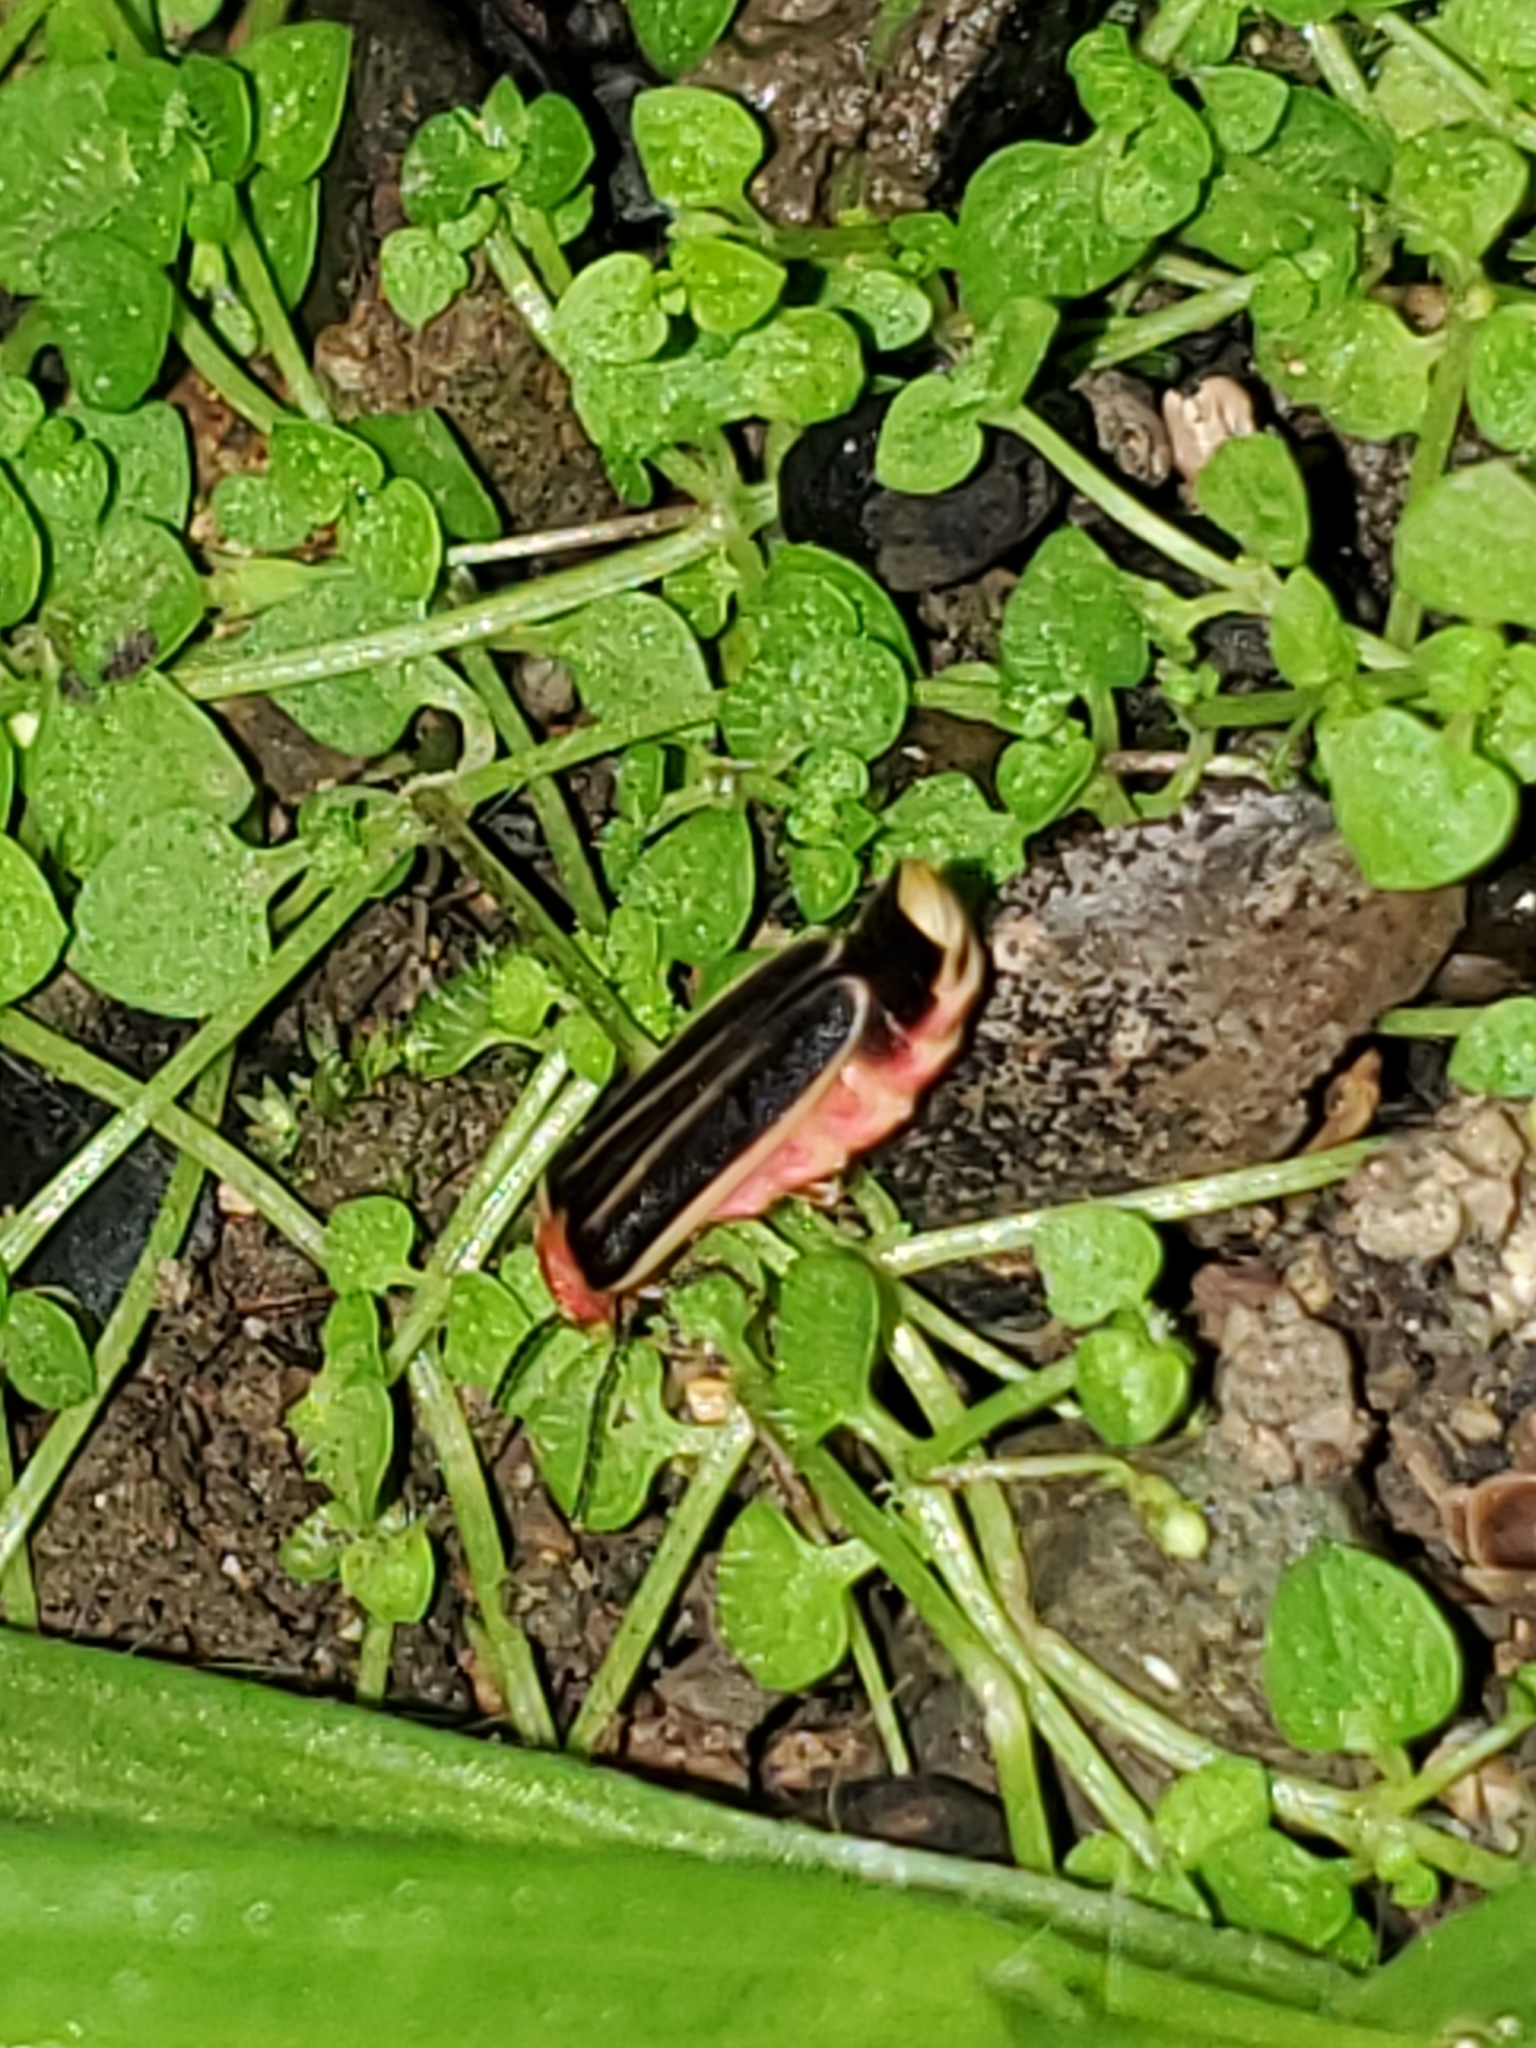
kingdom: Animalia
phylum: Arthropoda
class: Insecta
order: Coleoptera
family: Lampyridae
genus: Heterophotinus
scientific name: Heterophotinus vittatus
